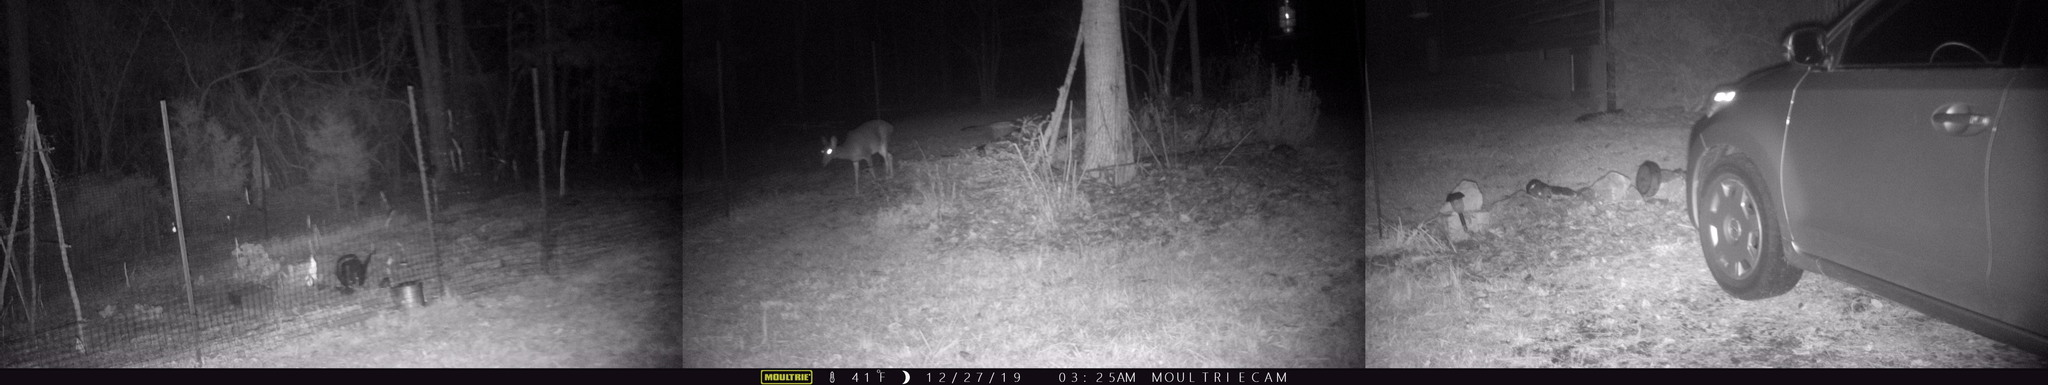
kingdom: Animalia
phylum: Chordata
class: Mammalia
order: Artiodactyla
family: Cervidae
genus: Odocoileus
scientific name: Odocoileus virginianus
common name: White-tailed deer
